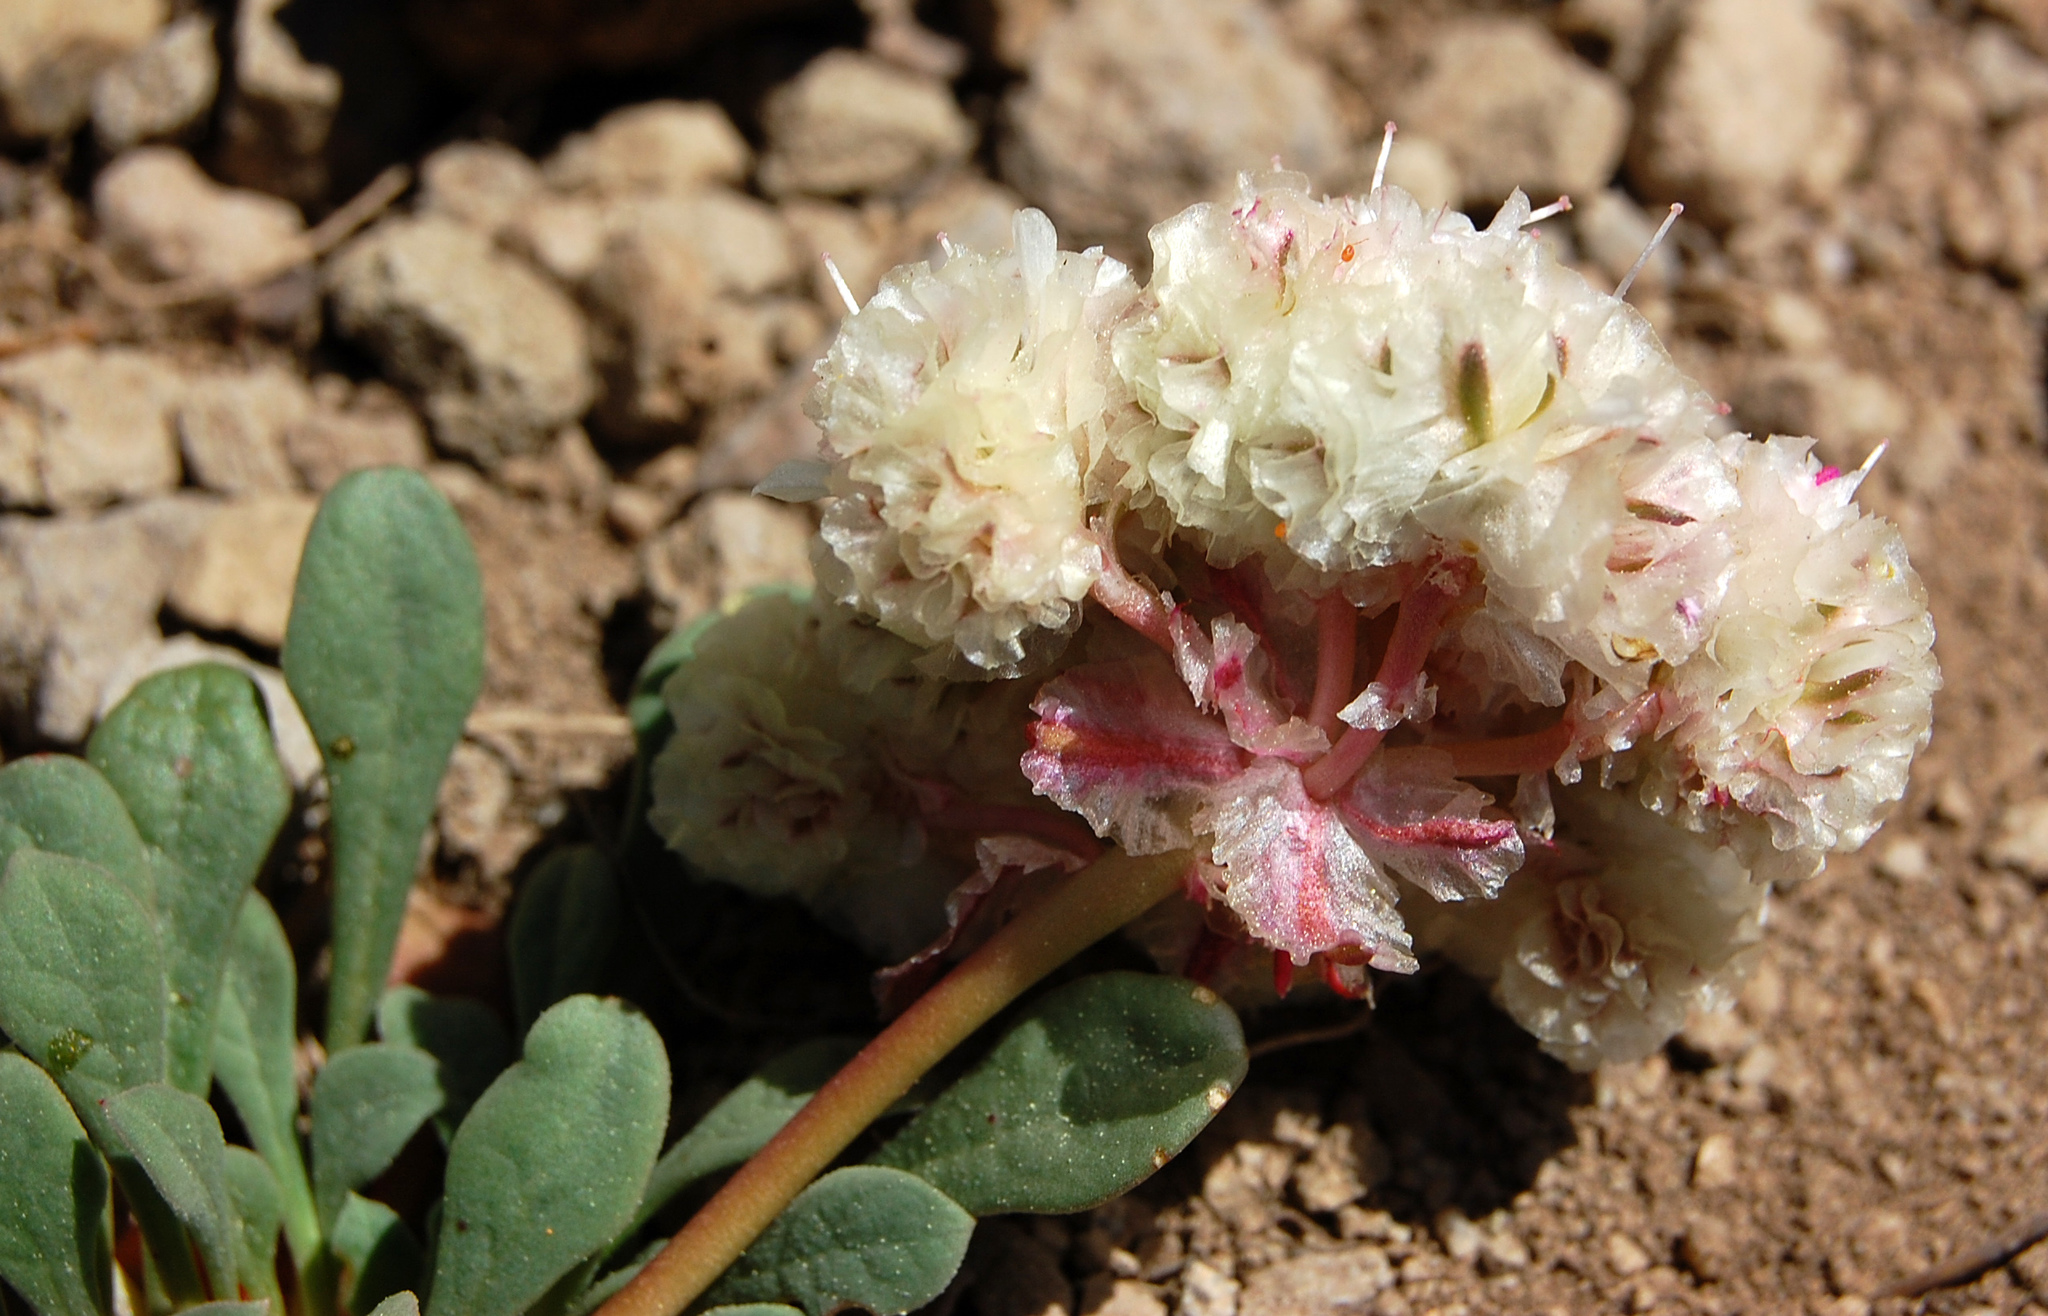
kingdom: Plantae
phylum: Tracheophyta
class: Magnoliopsida
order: Caryophyllales
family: Montiaceae
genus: Calyptridium
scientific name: Calyptridium monospermum
